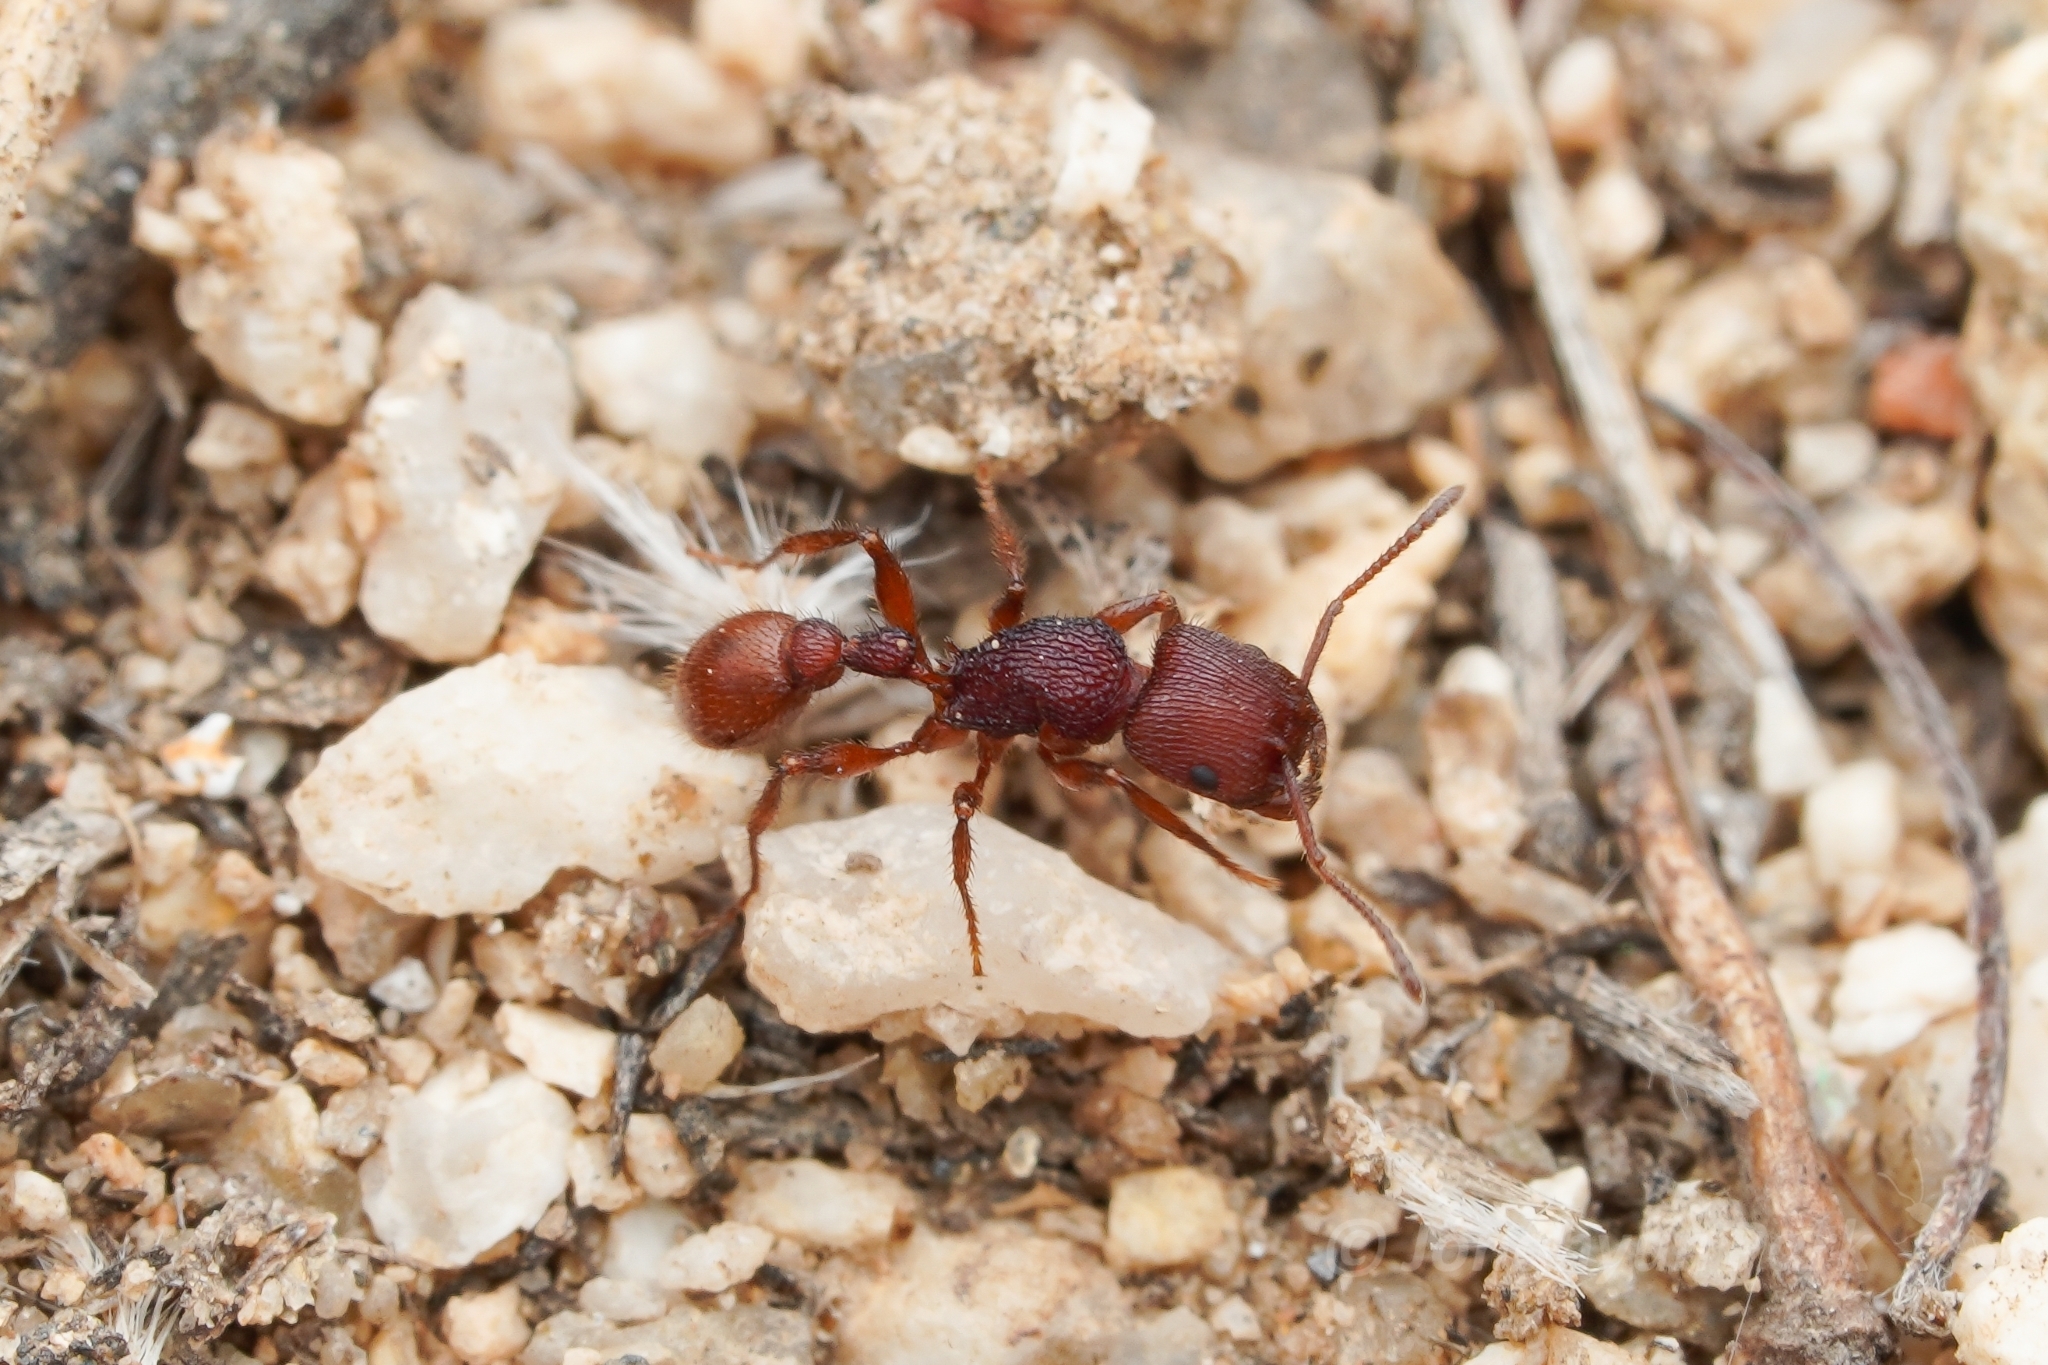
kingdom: Animalia
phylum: Arthropoda
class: Insecta
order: Hymenoptera
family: Formicidae
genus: Pogonomyrmex
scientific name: Pogonomyrmex imberbiculus
